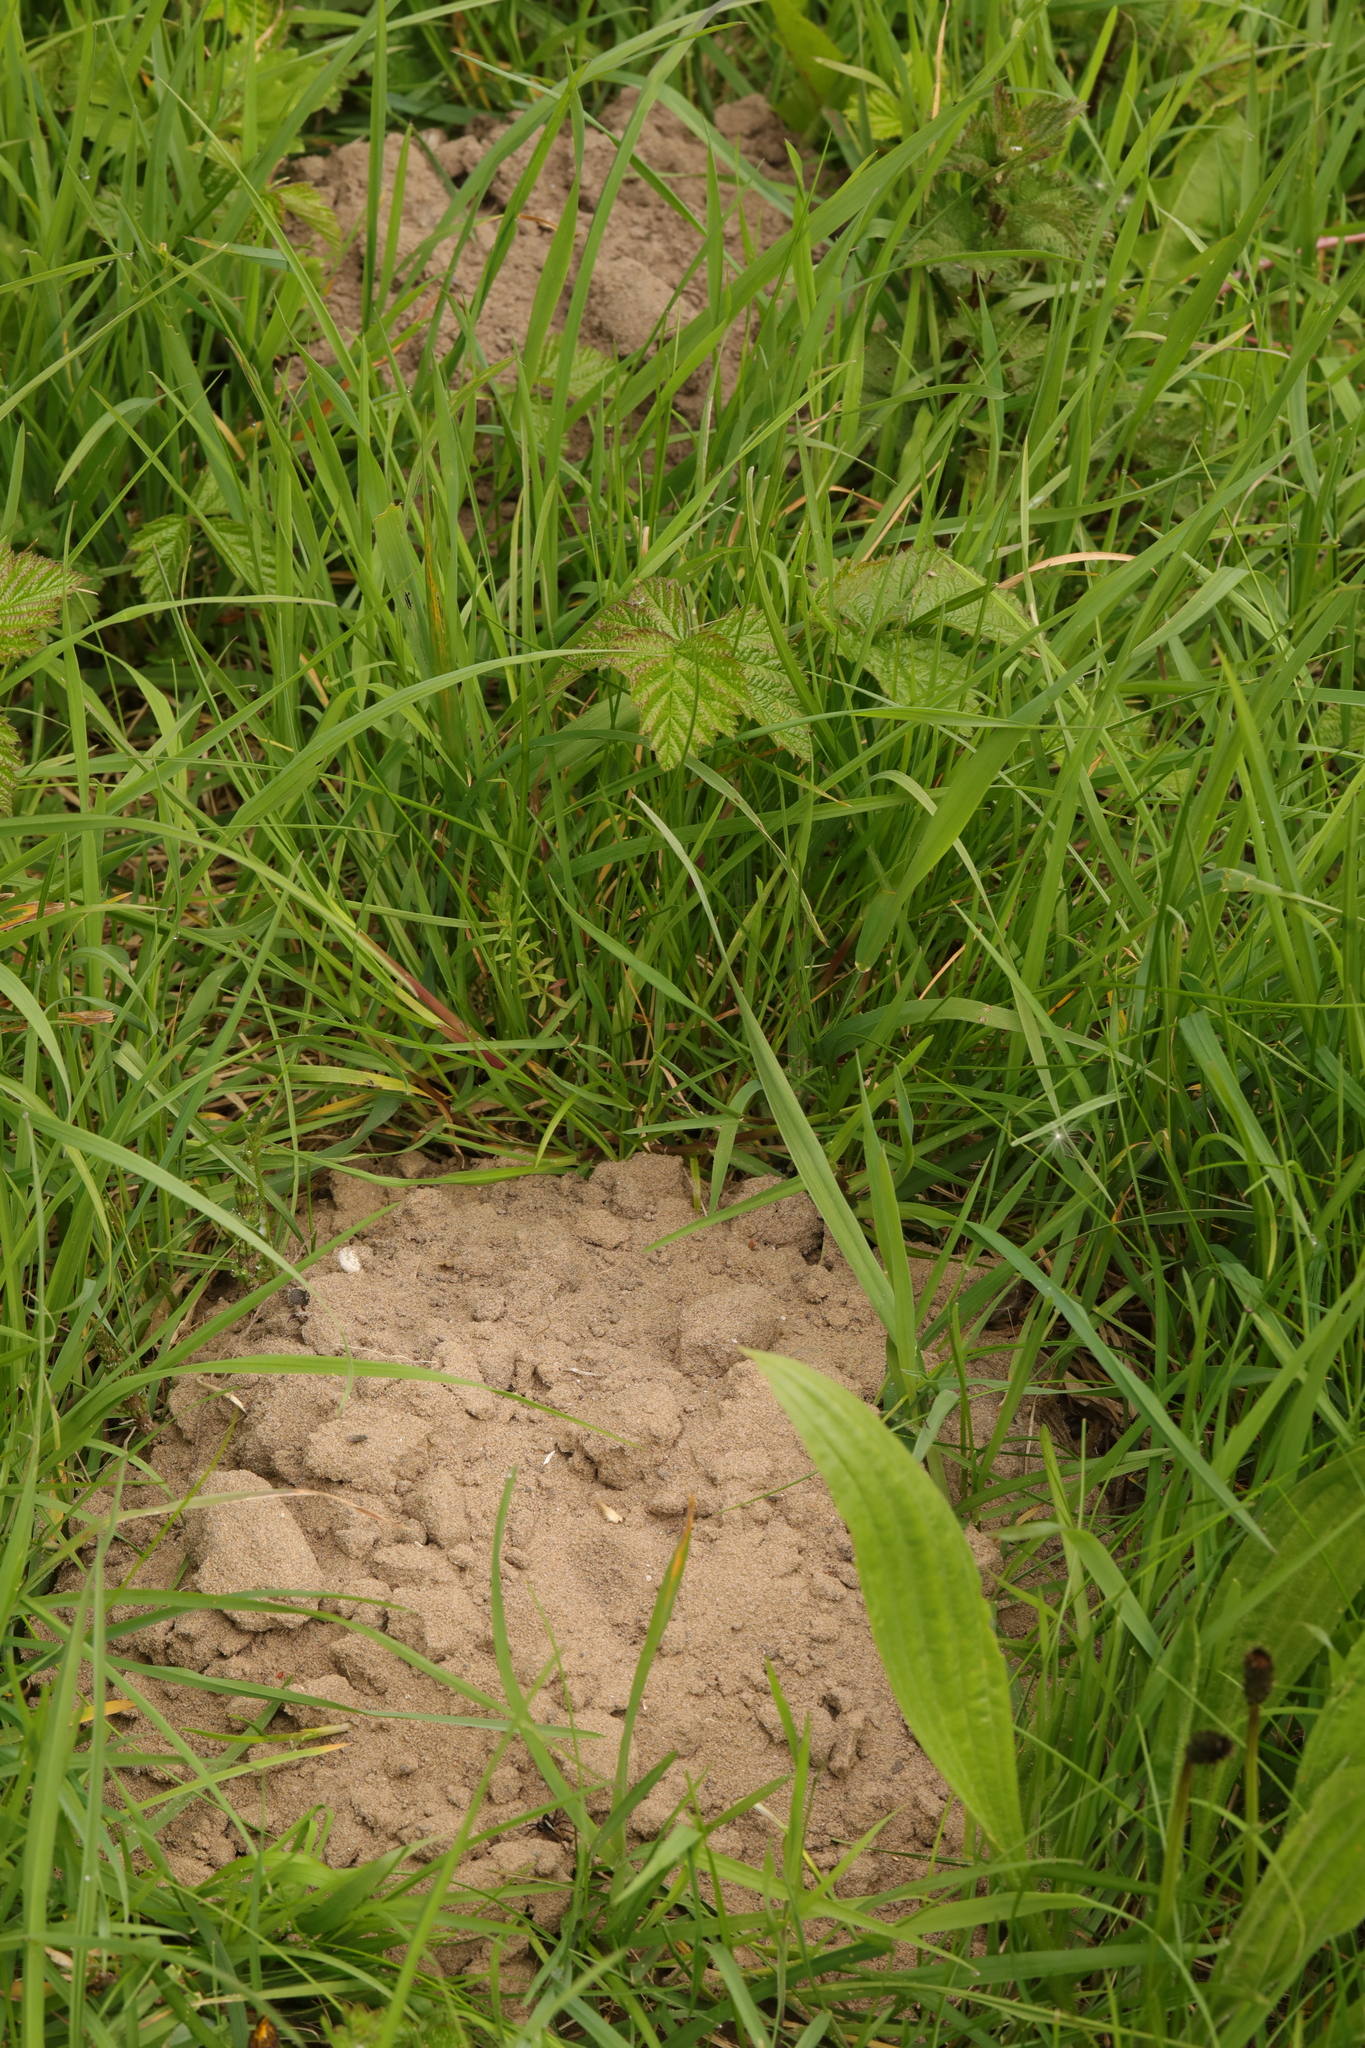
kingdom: Animalia
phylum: Chordata
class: Mammalia
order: Soricomorpha
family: Talpidae
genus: Talpa
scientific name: Talpa europaea
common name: European mole
